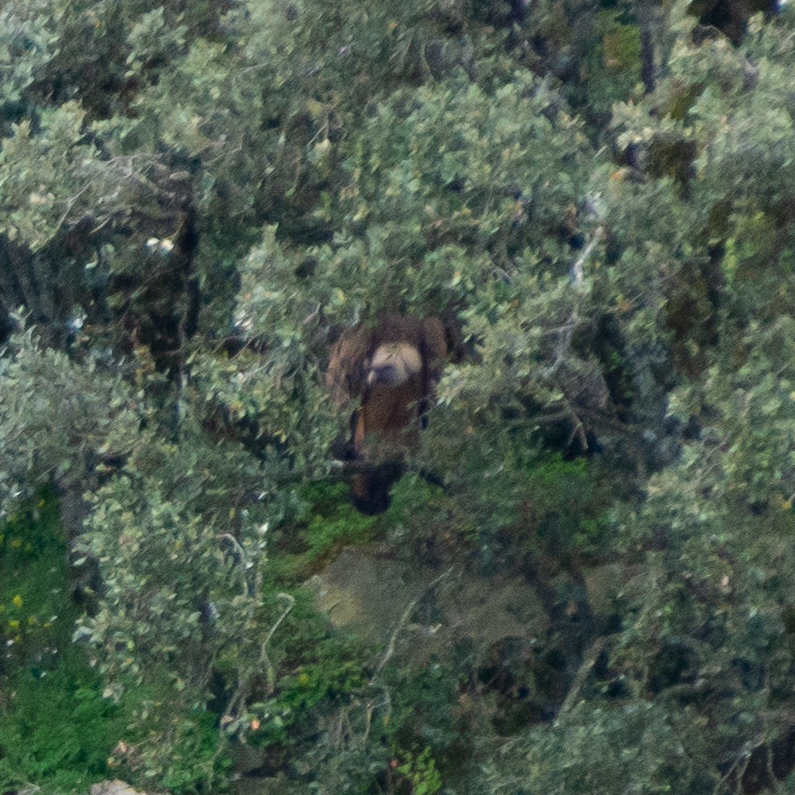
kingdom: Animalia
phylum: Chordata
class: Aves
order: Accipitriformes
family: Accipitridae
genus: Gyps
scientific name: Gyps fulvus
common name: Griffon vulture
